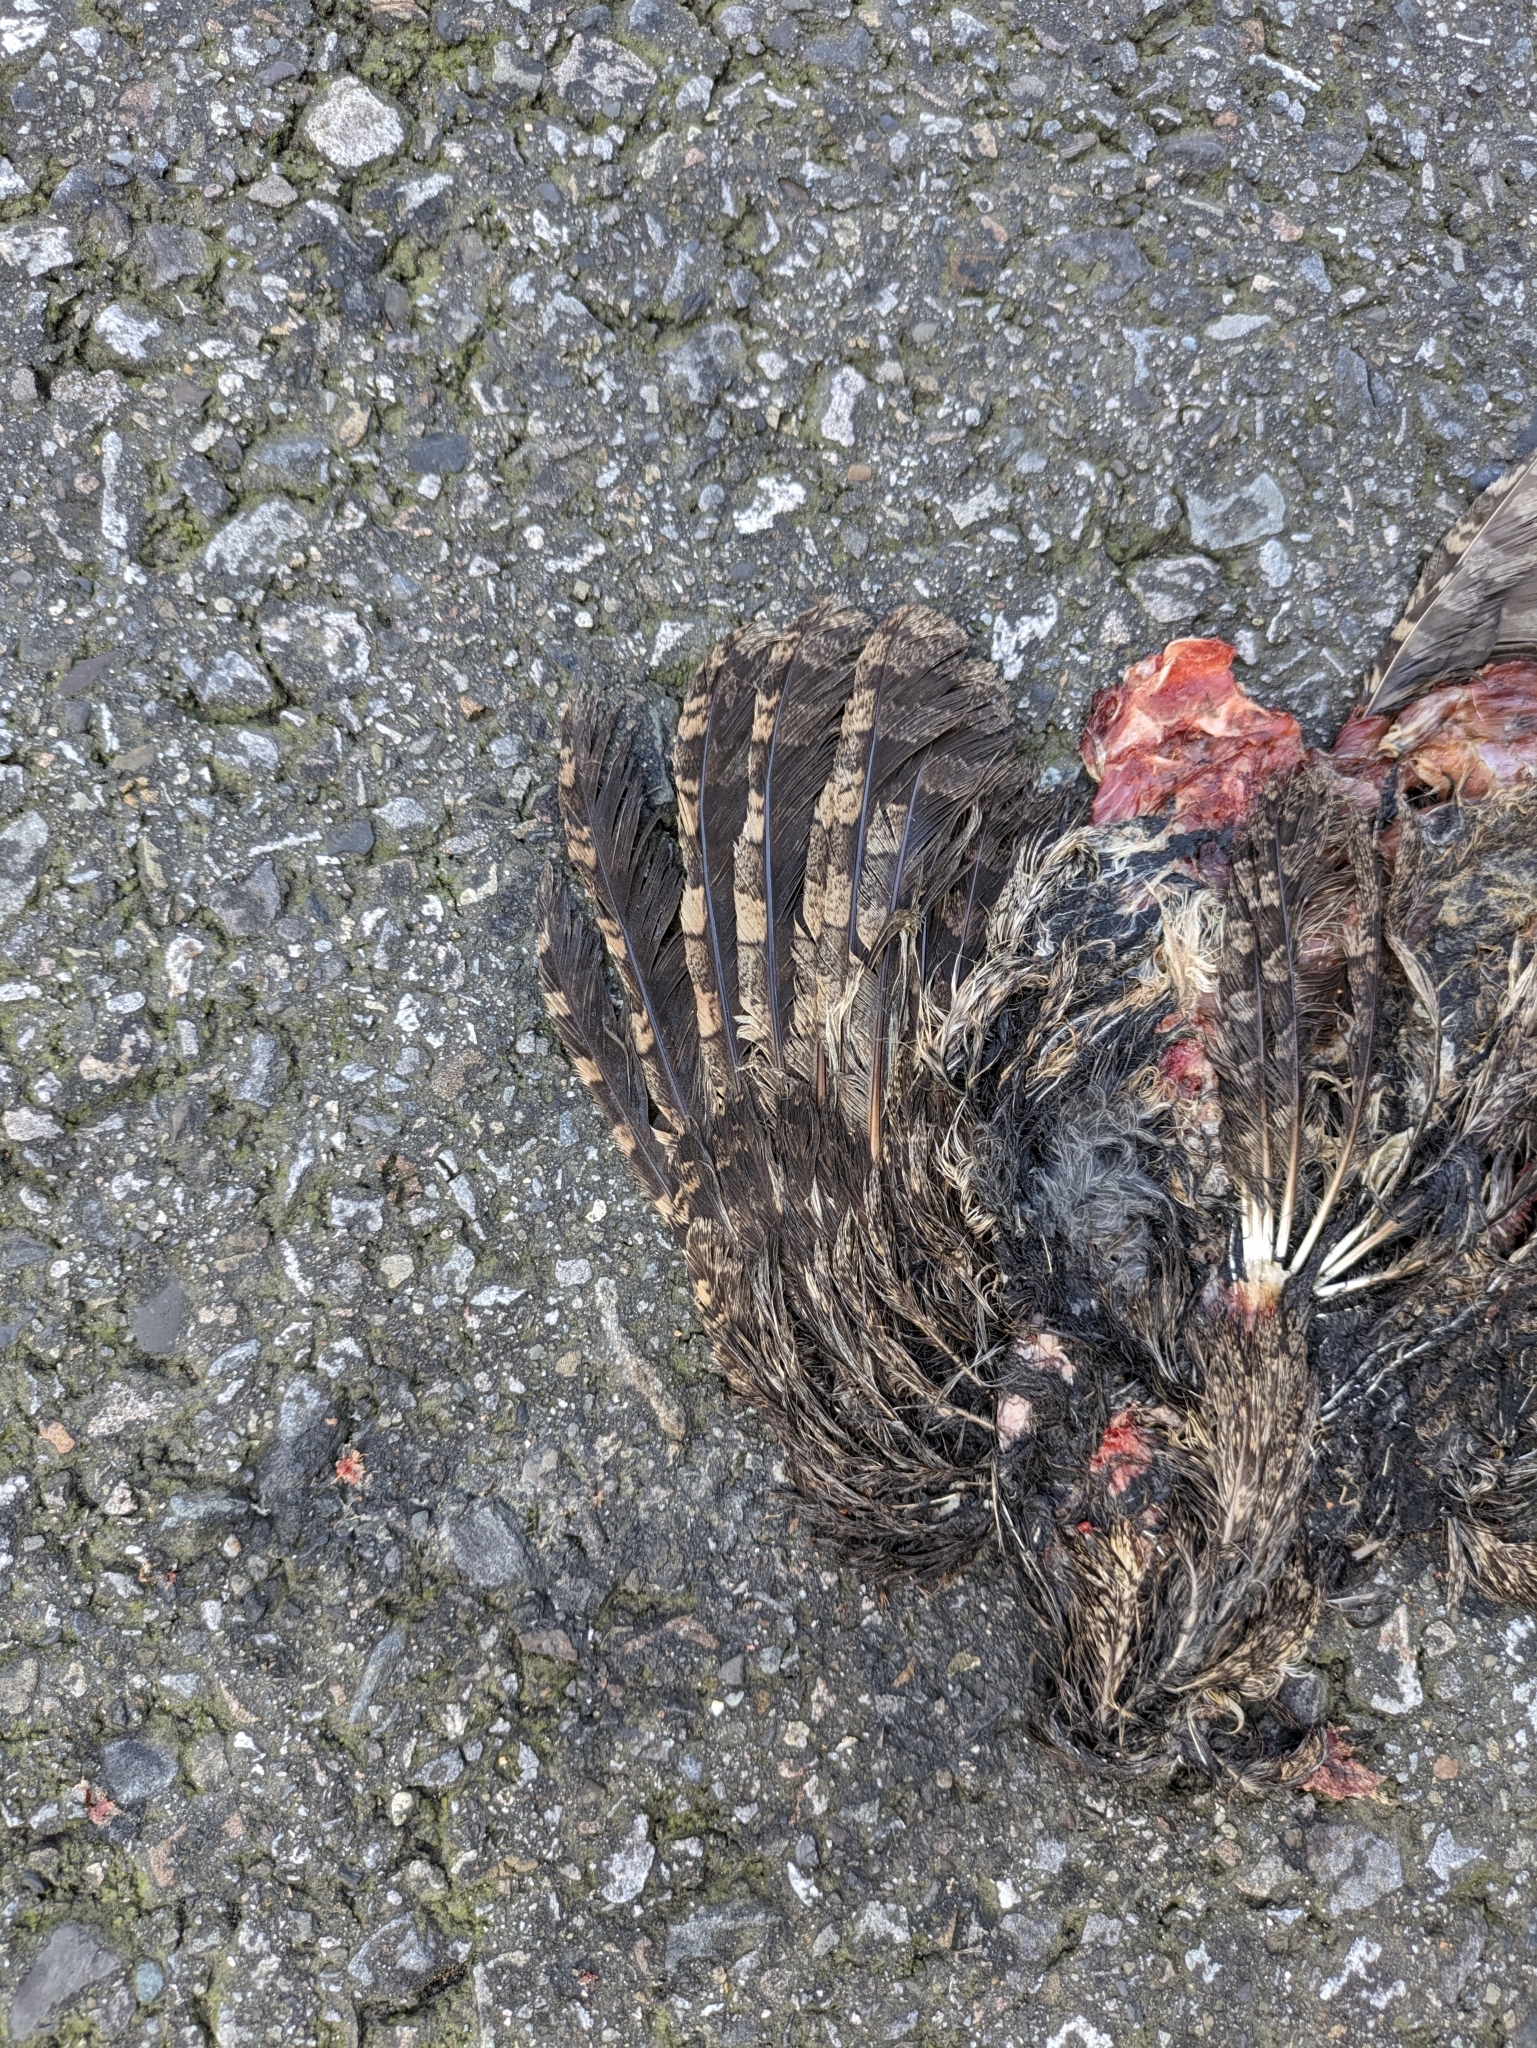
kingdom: Animalia
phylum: Chordata
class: Aves
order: Strigiformes
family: Strigidae
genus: Otus
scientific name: Otus lettia
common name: Collared scops owl
